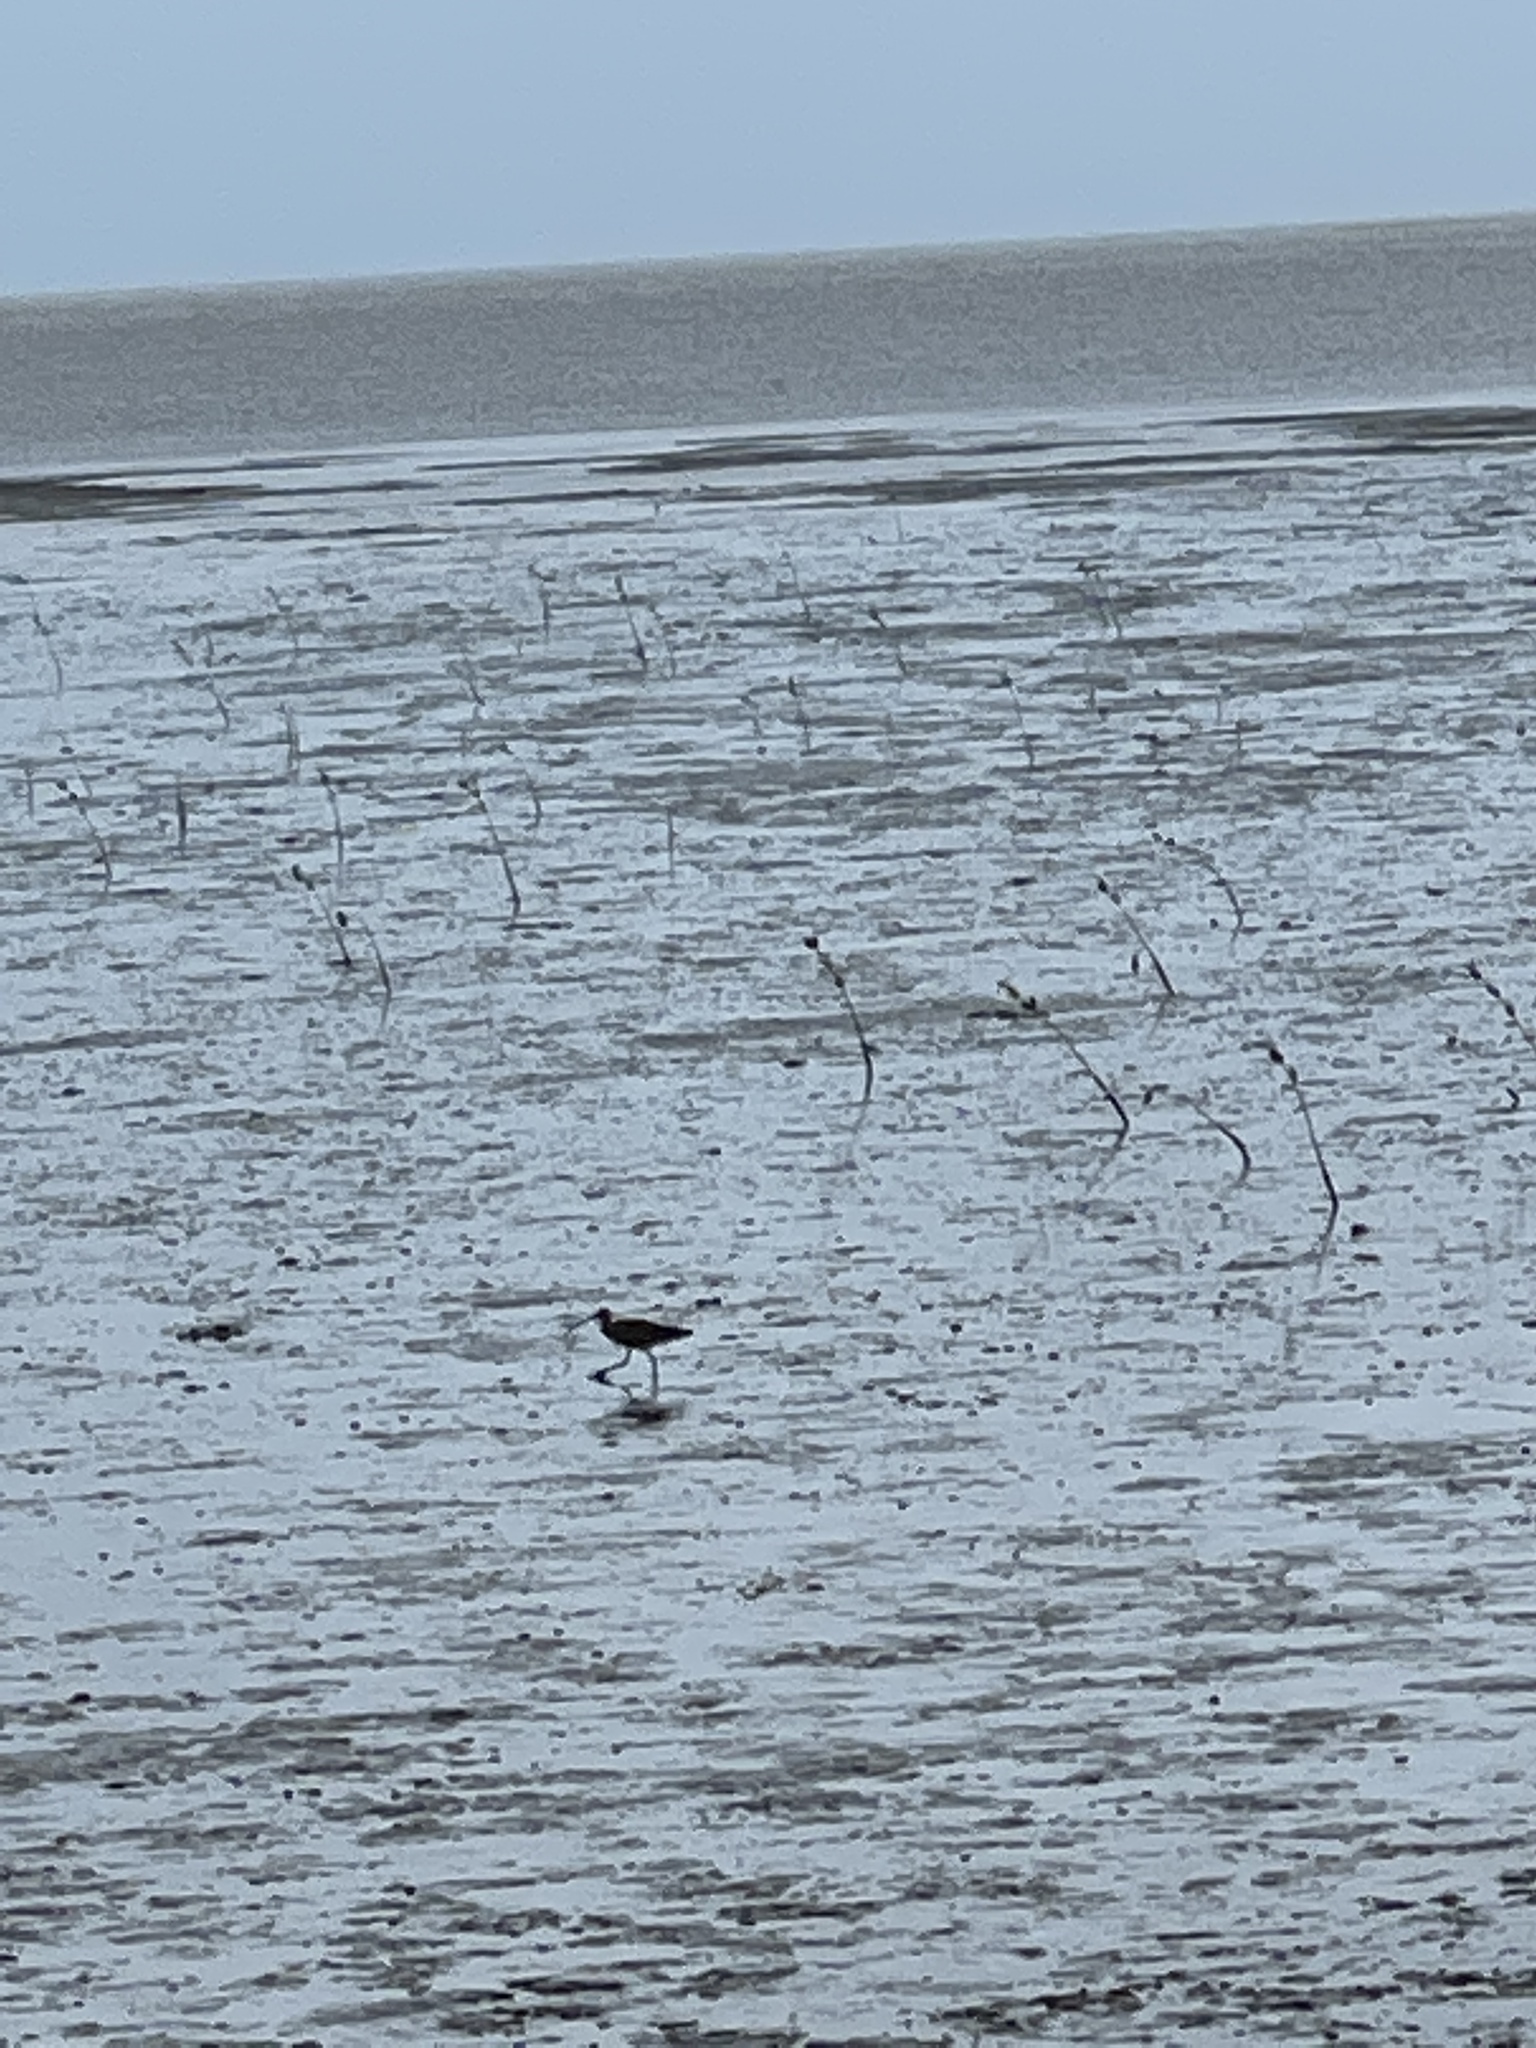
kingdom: Animalia
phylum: Chordata
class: Aves
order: Charadriiformes
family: Scolopacidae
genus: Numenius
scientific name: Numenius madagascariensis
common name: Far eastern curlew
